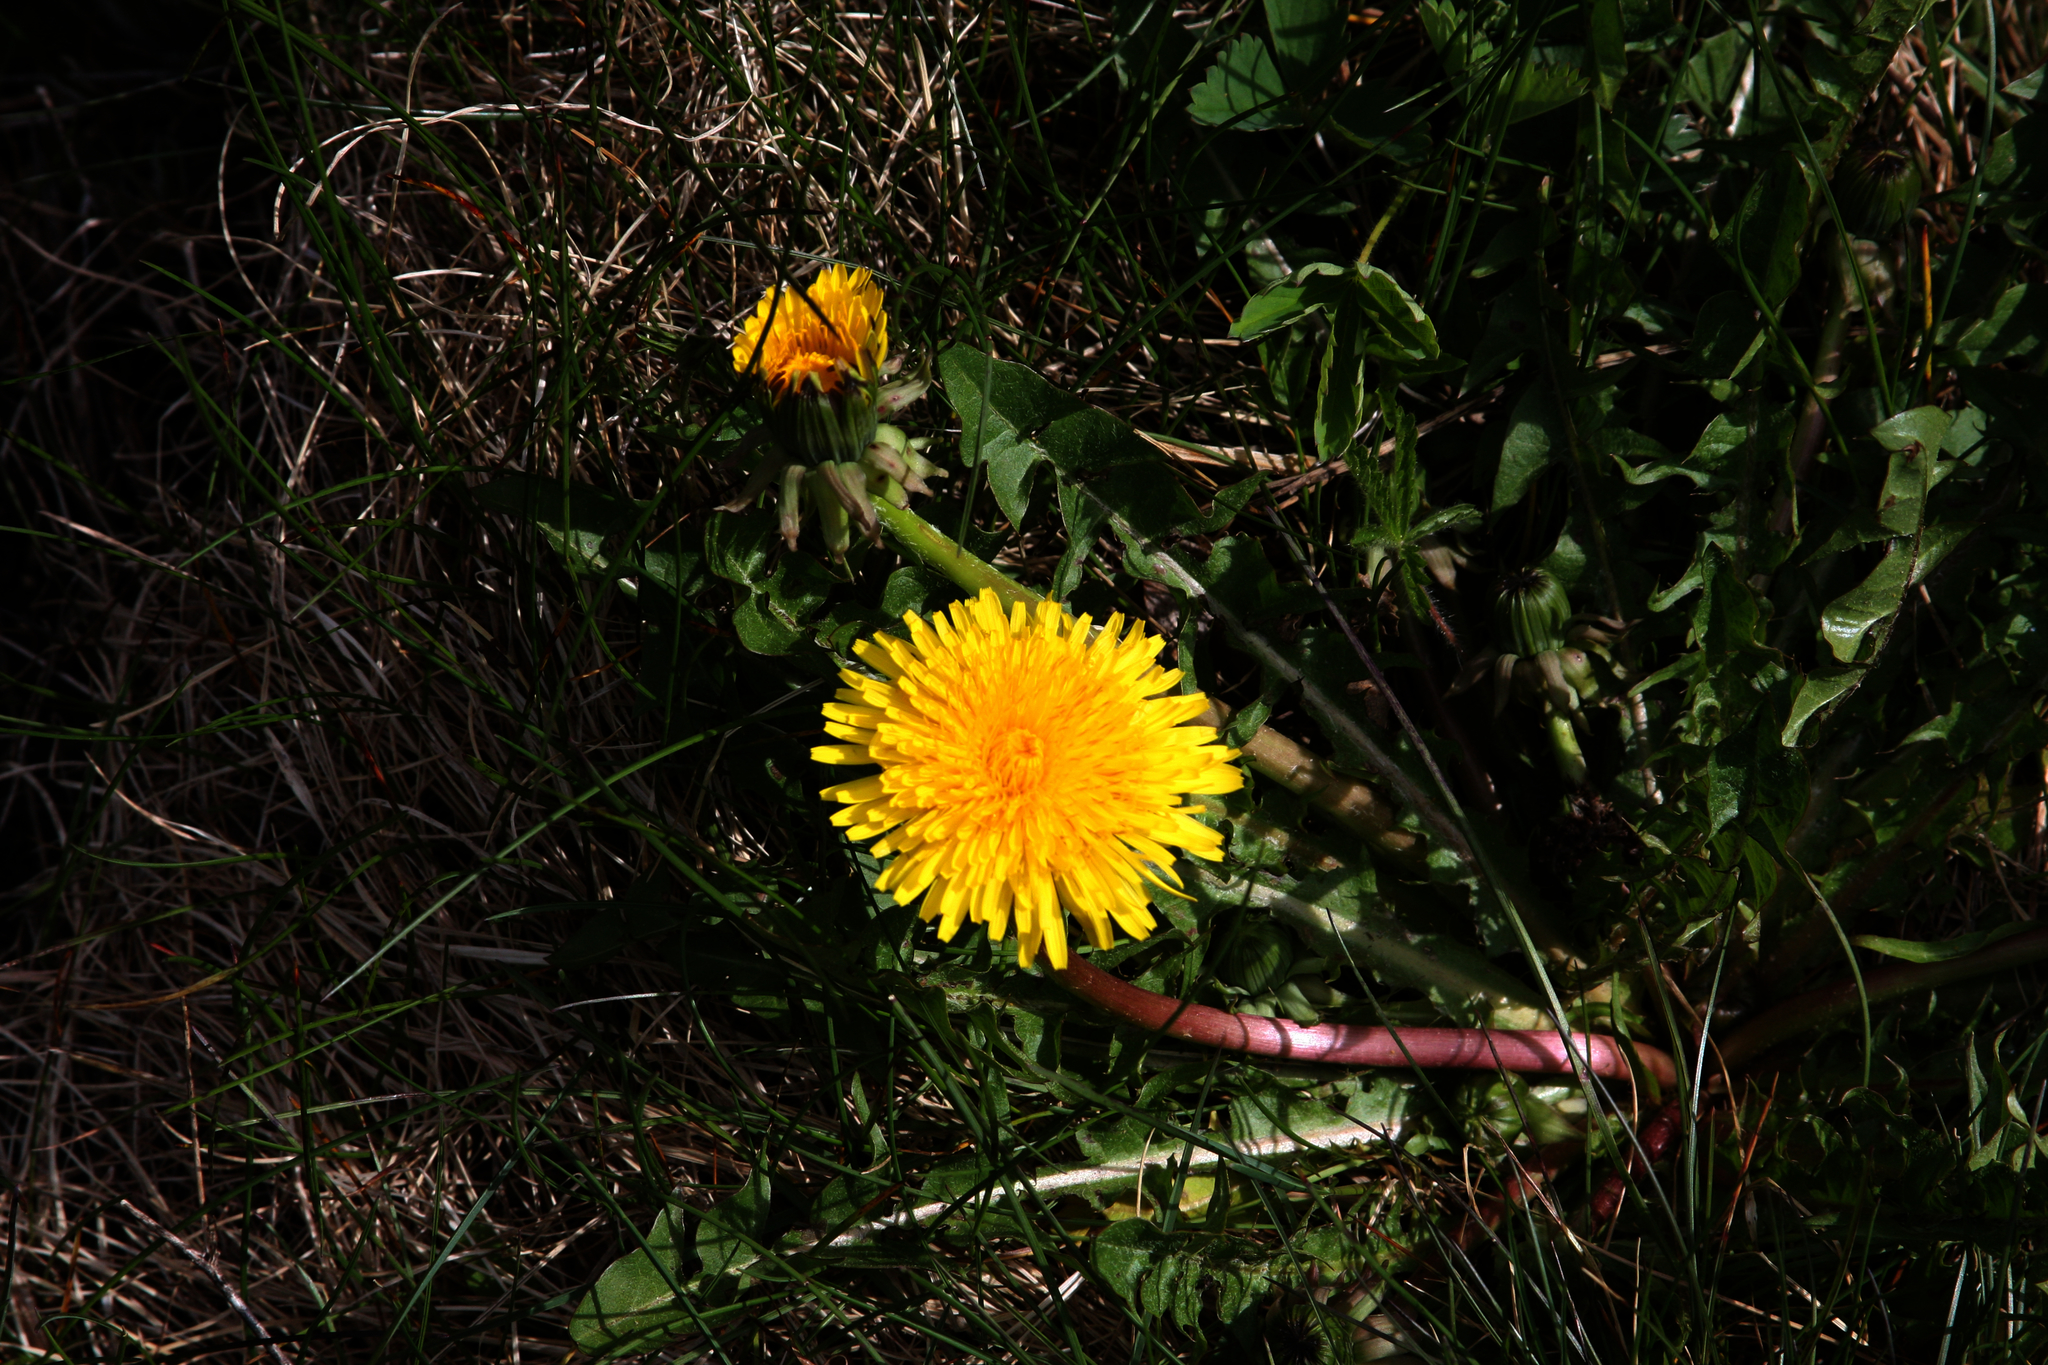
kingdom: Plantae
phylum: Tracheophyta
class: Magnoliopsida
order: Asterales
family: Asteraceae
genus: Taraxacum
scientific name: Taraxacum officinale
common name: Common dandelion
